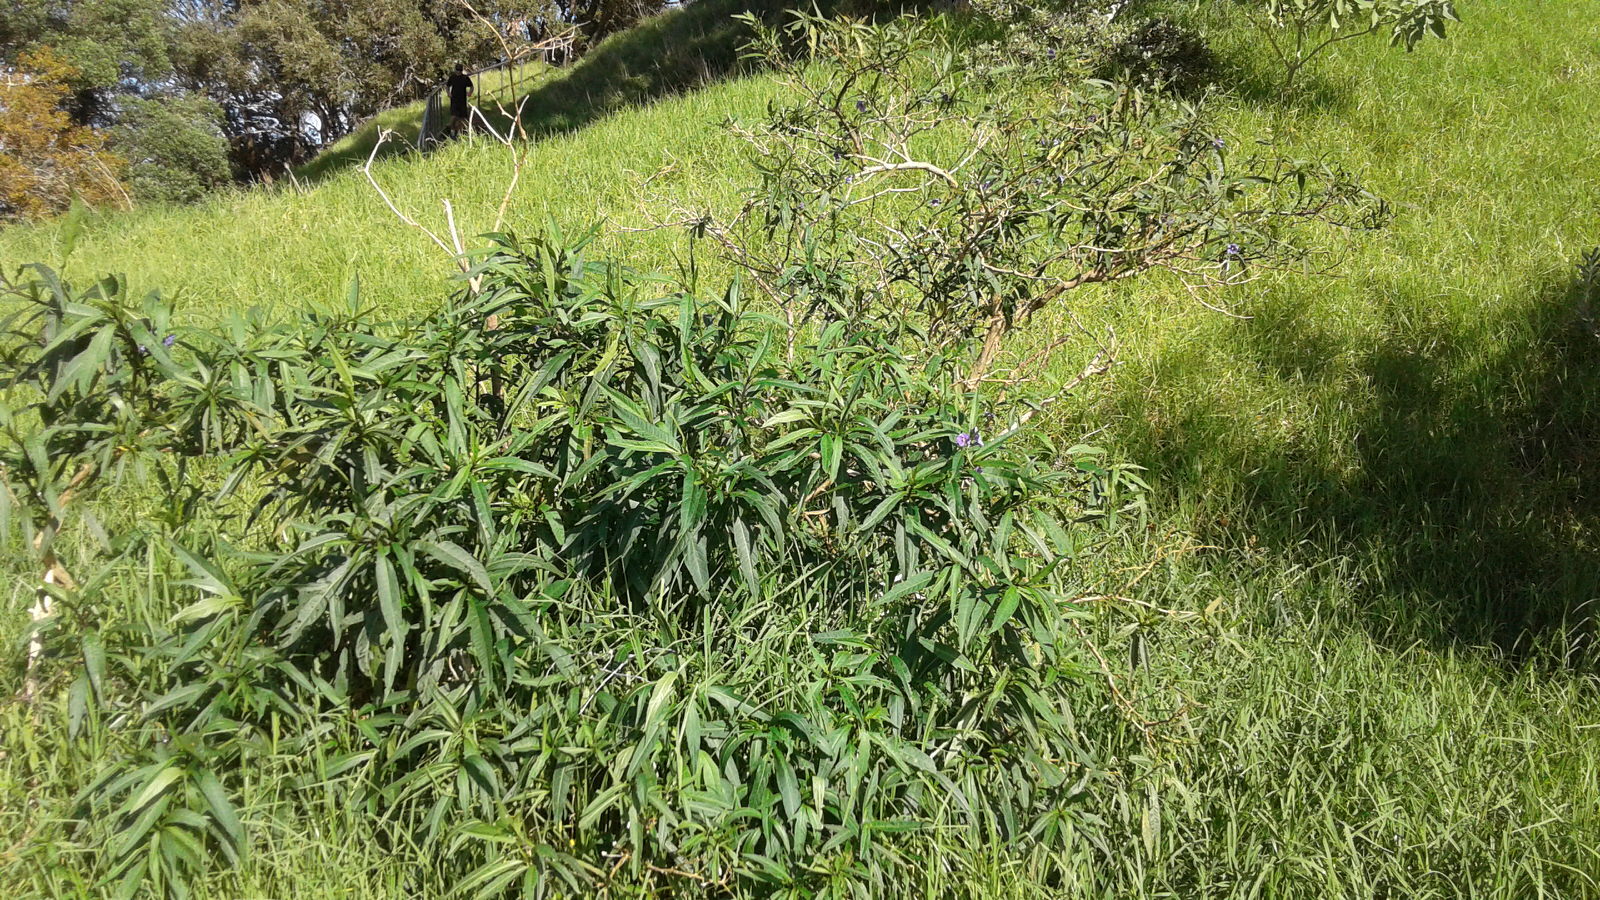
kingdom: Plantae
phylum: Tracheophyta
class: Magnoliopsida
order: Solanales
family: Solanaceae
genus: Solanum
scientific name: Solanum laciniatum
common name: Kangaroo-apple
